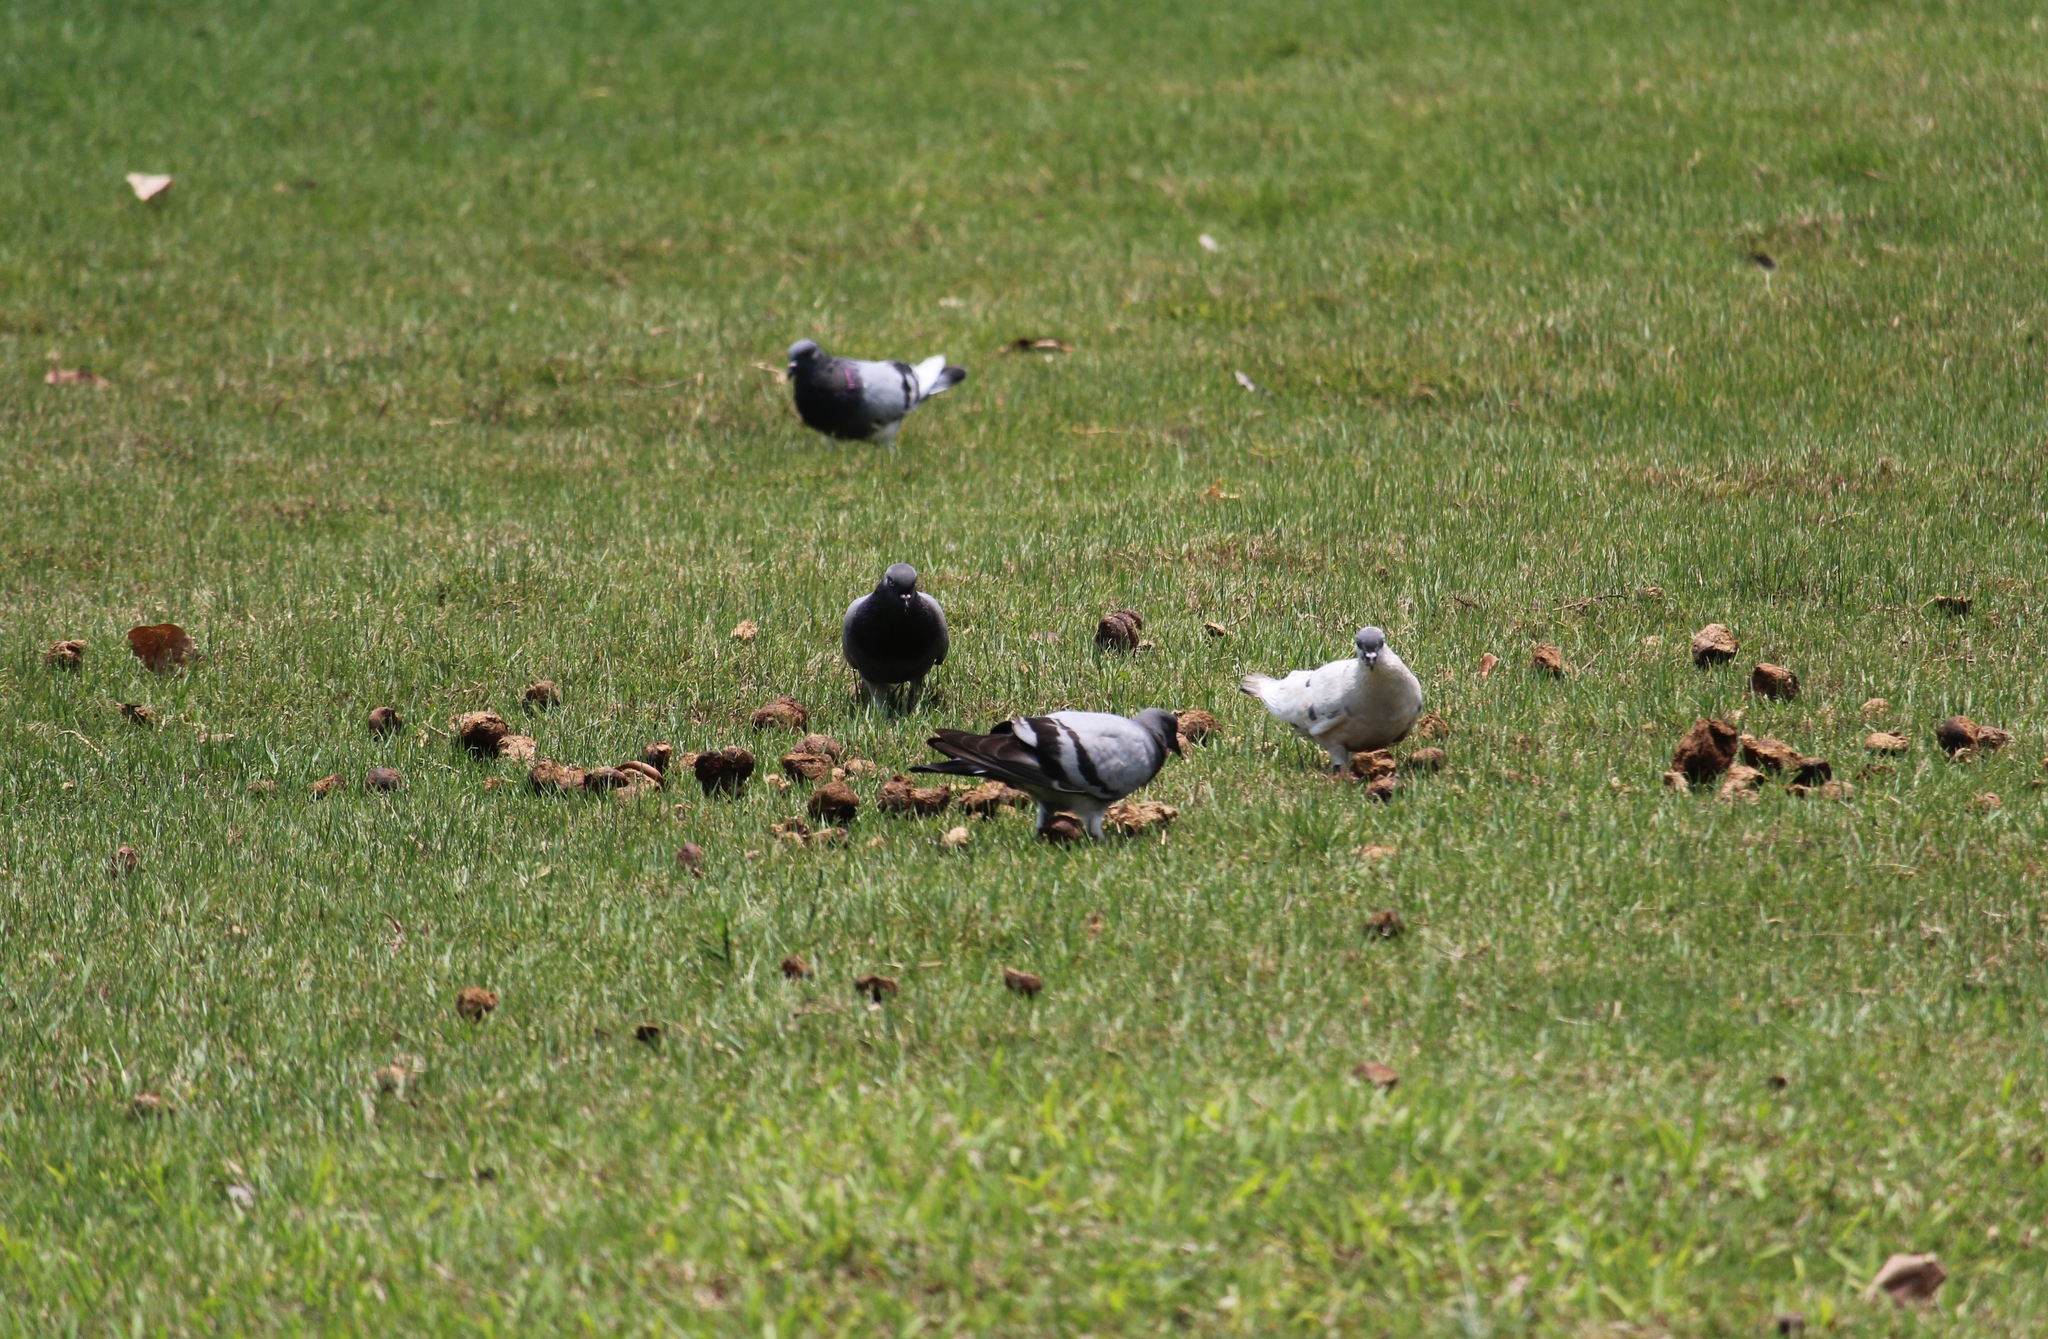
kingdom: Animalia
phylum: Chordata
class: Aves
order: Columbiformes
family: Columbidae
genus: Columba
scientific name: Columba livia
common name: Rock pigeon
